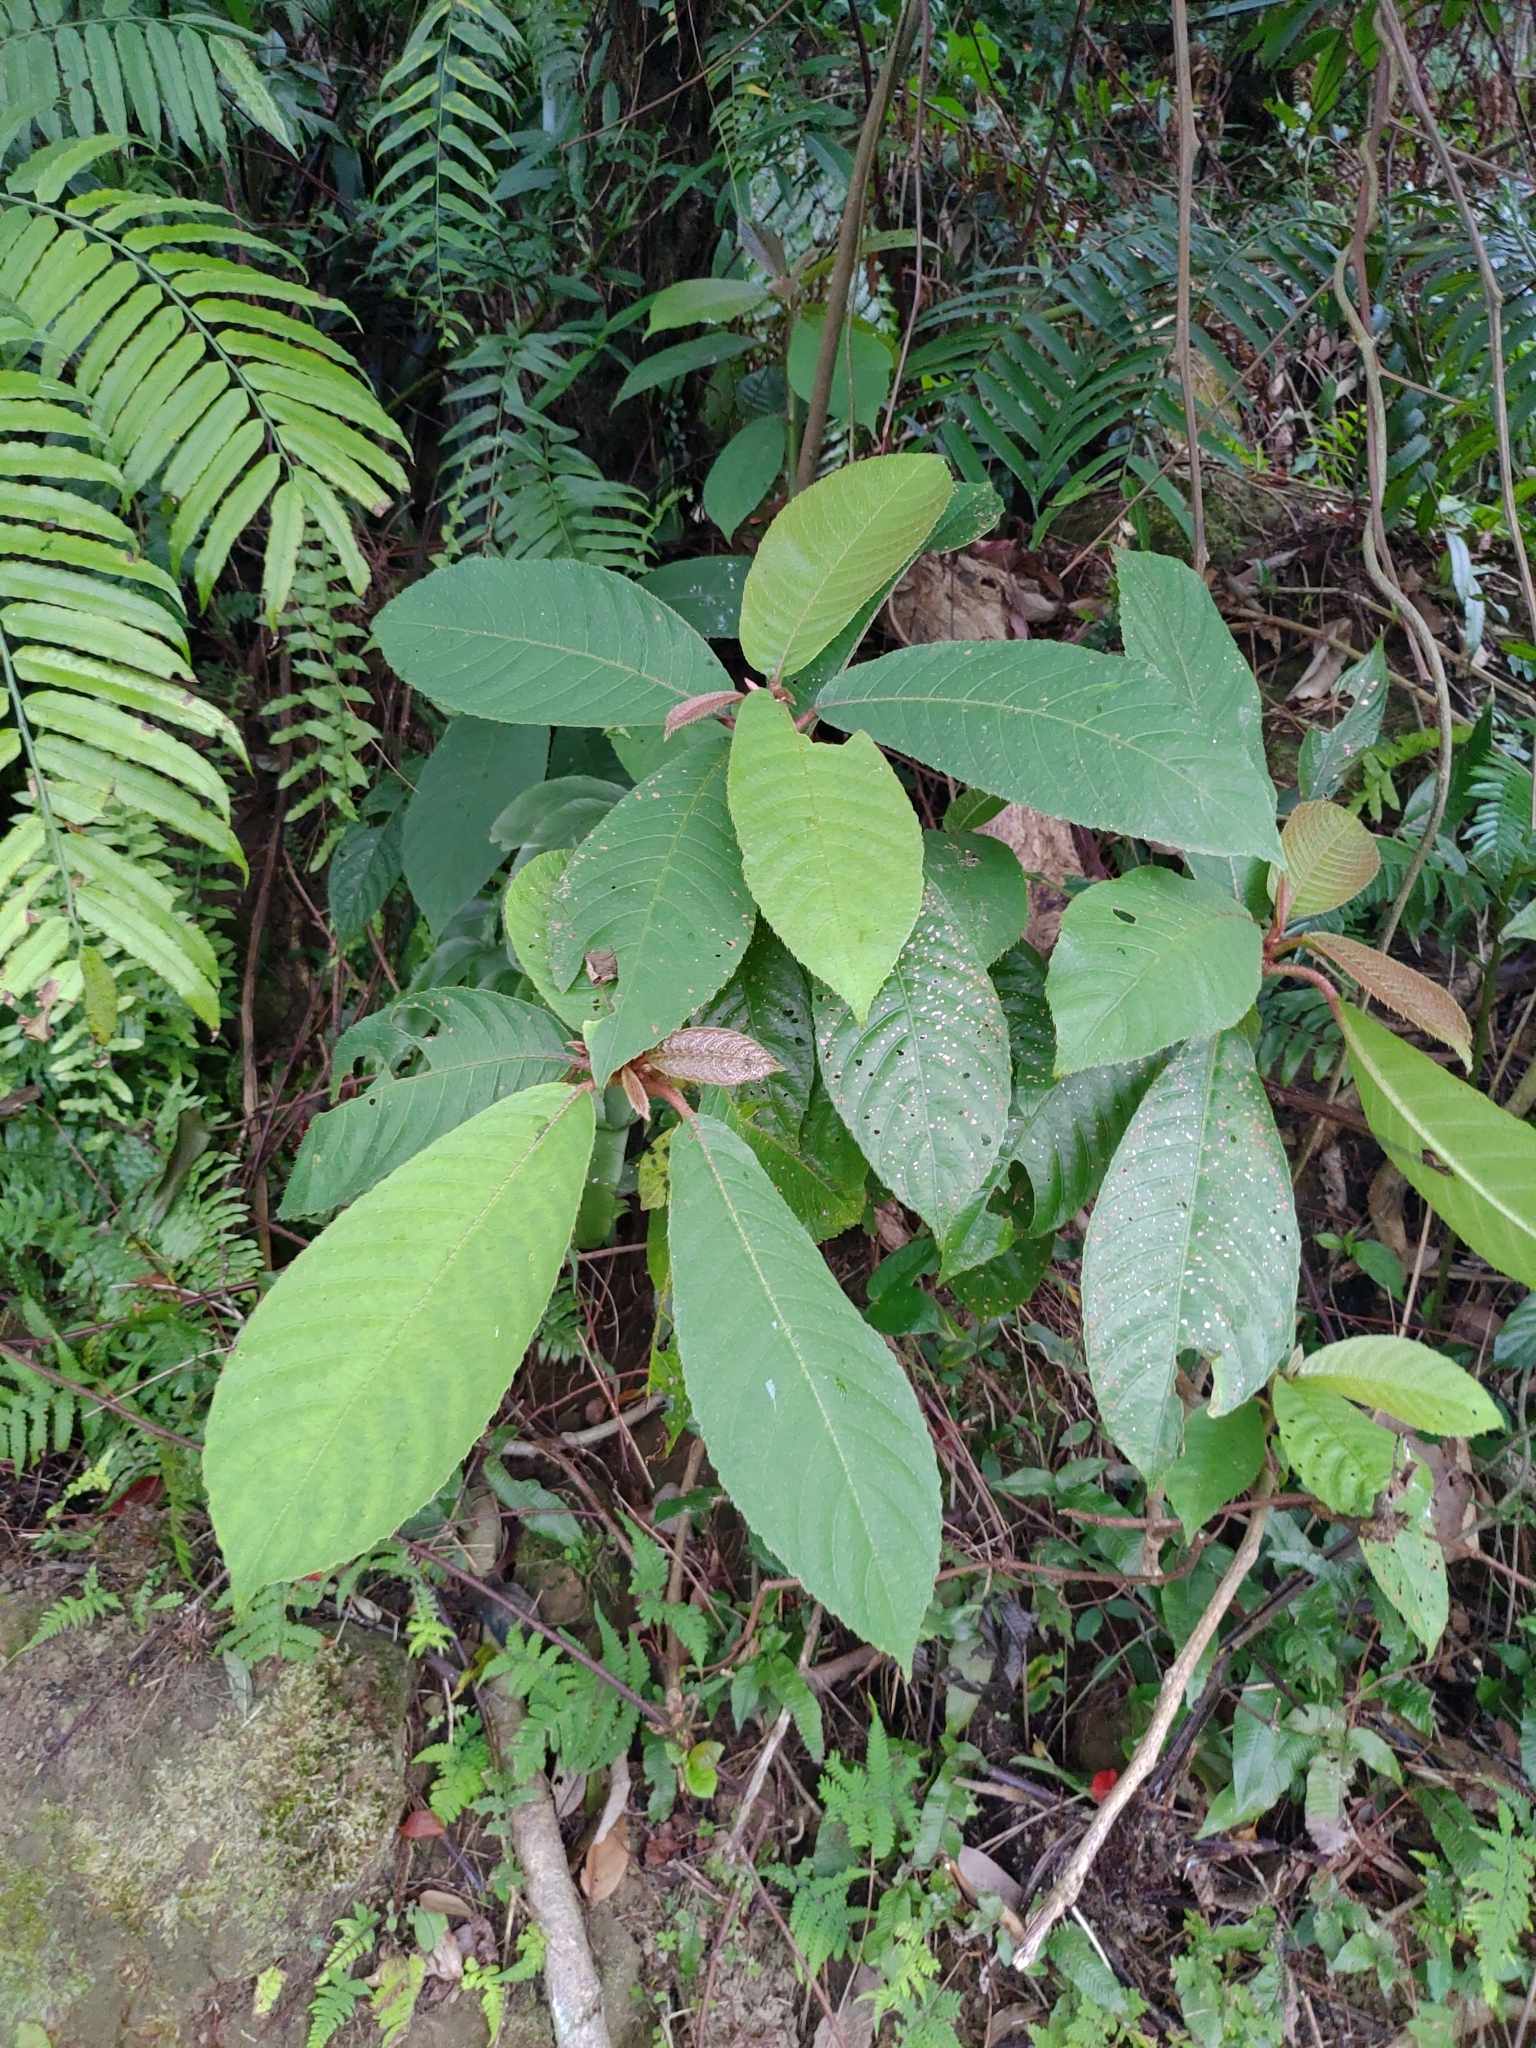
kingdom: Plantae
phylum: Tracheophyta
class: Magnoliopsida
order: Ericales
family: Actinidiaceae
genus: Saurauia
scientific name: Saurauia tristyla
